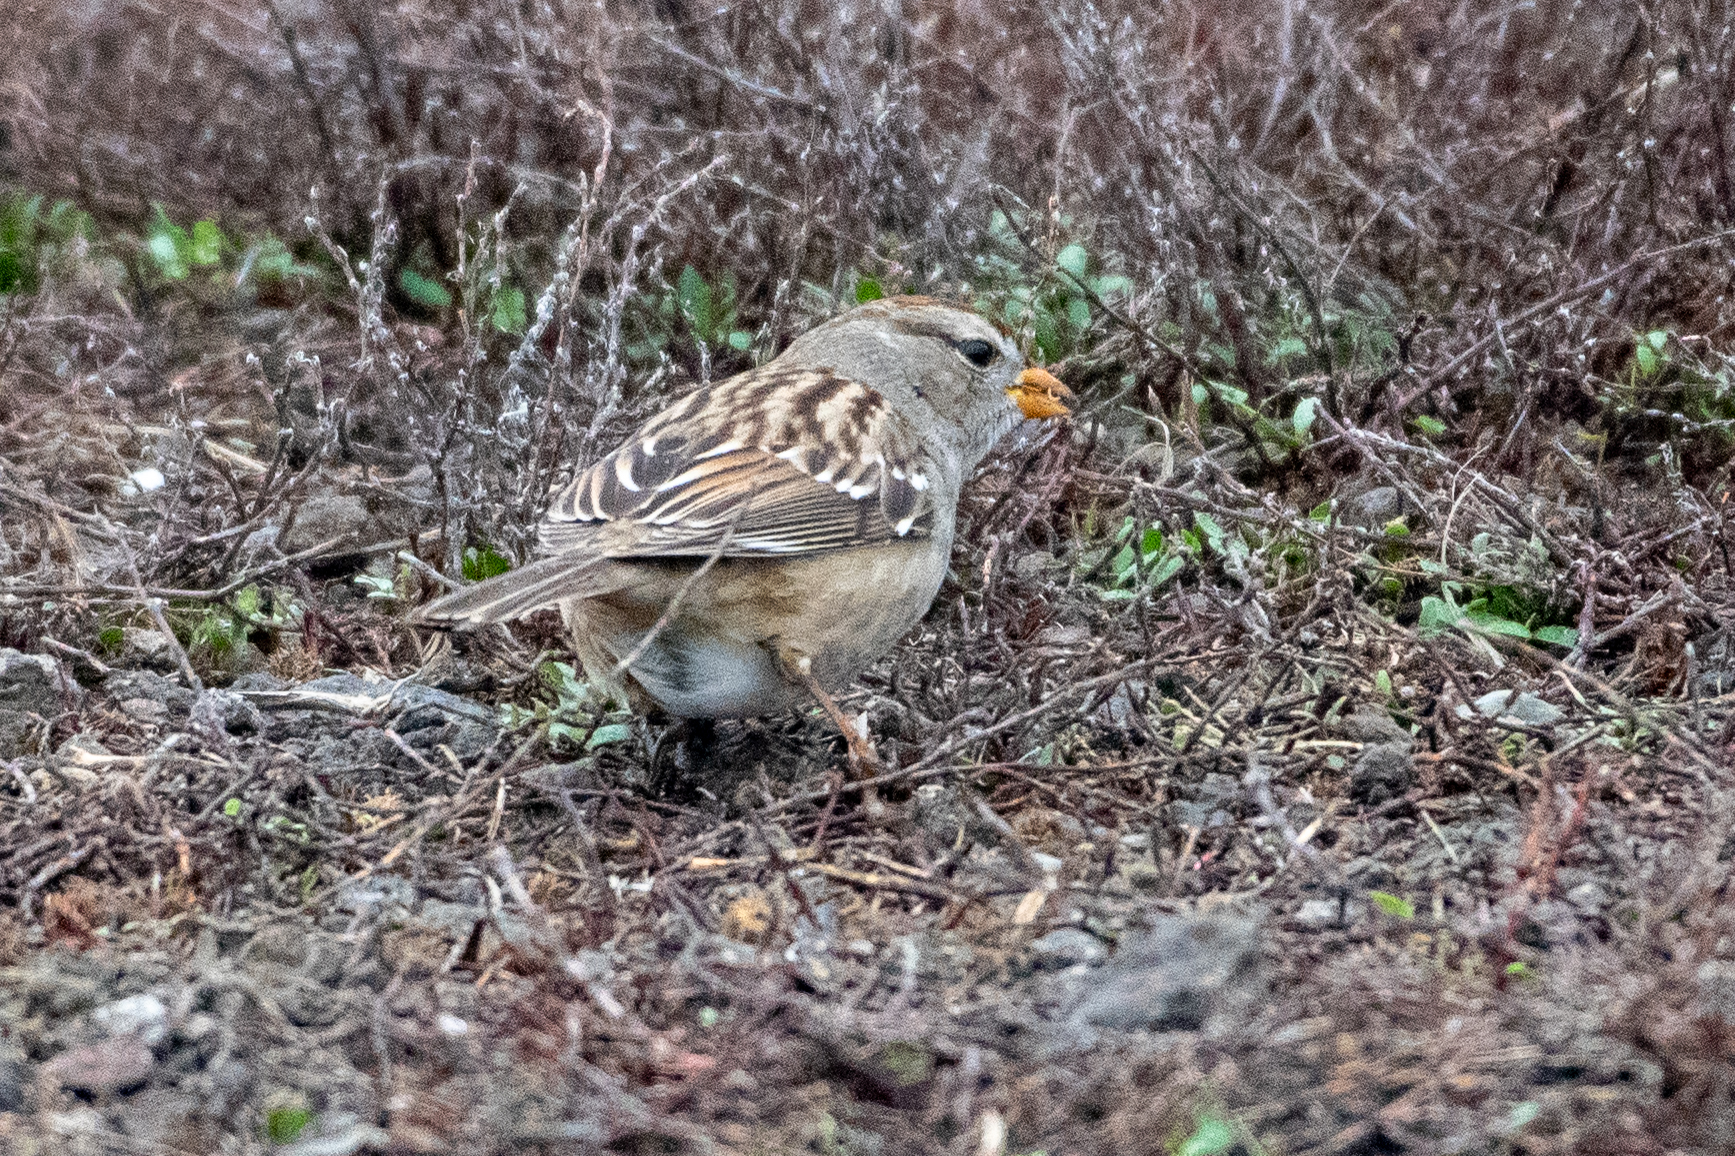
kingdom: Animalia
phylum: Chordata
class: Aves
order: Passeriformes
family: Passerellidae
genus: Zonotrichia
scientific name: Zonotrichia leucophrys
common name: White-crowned sparrow
